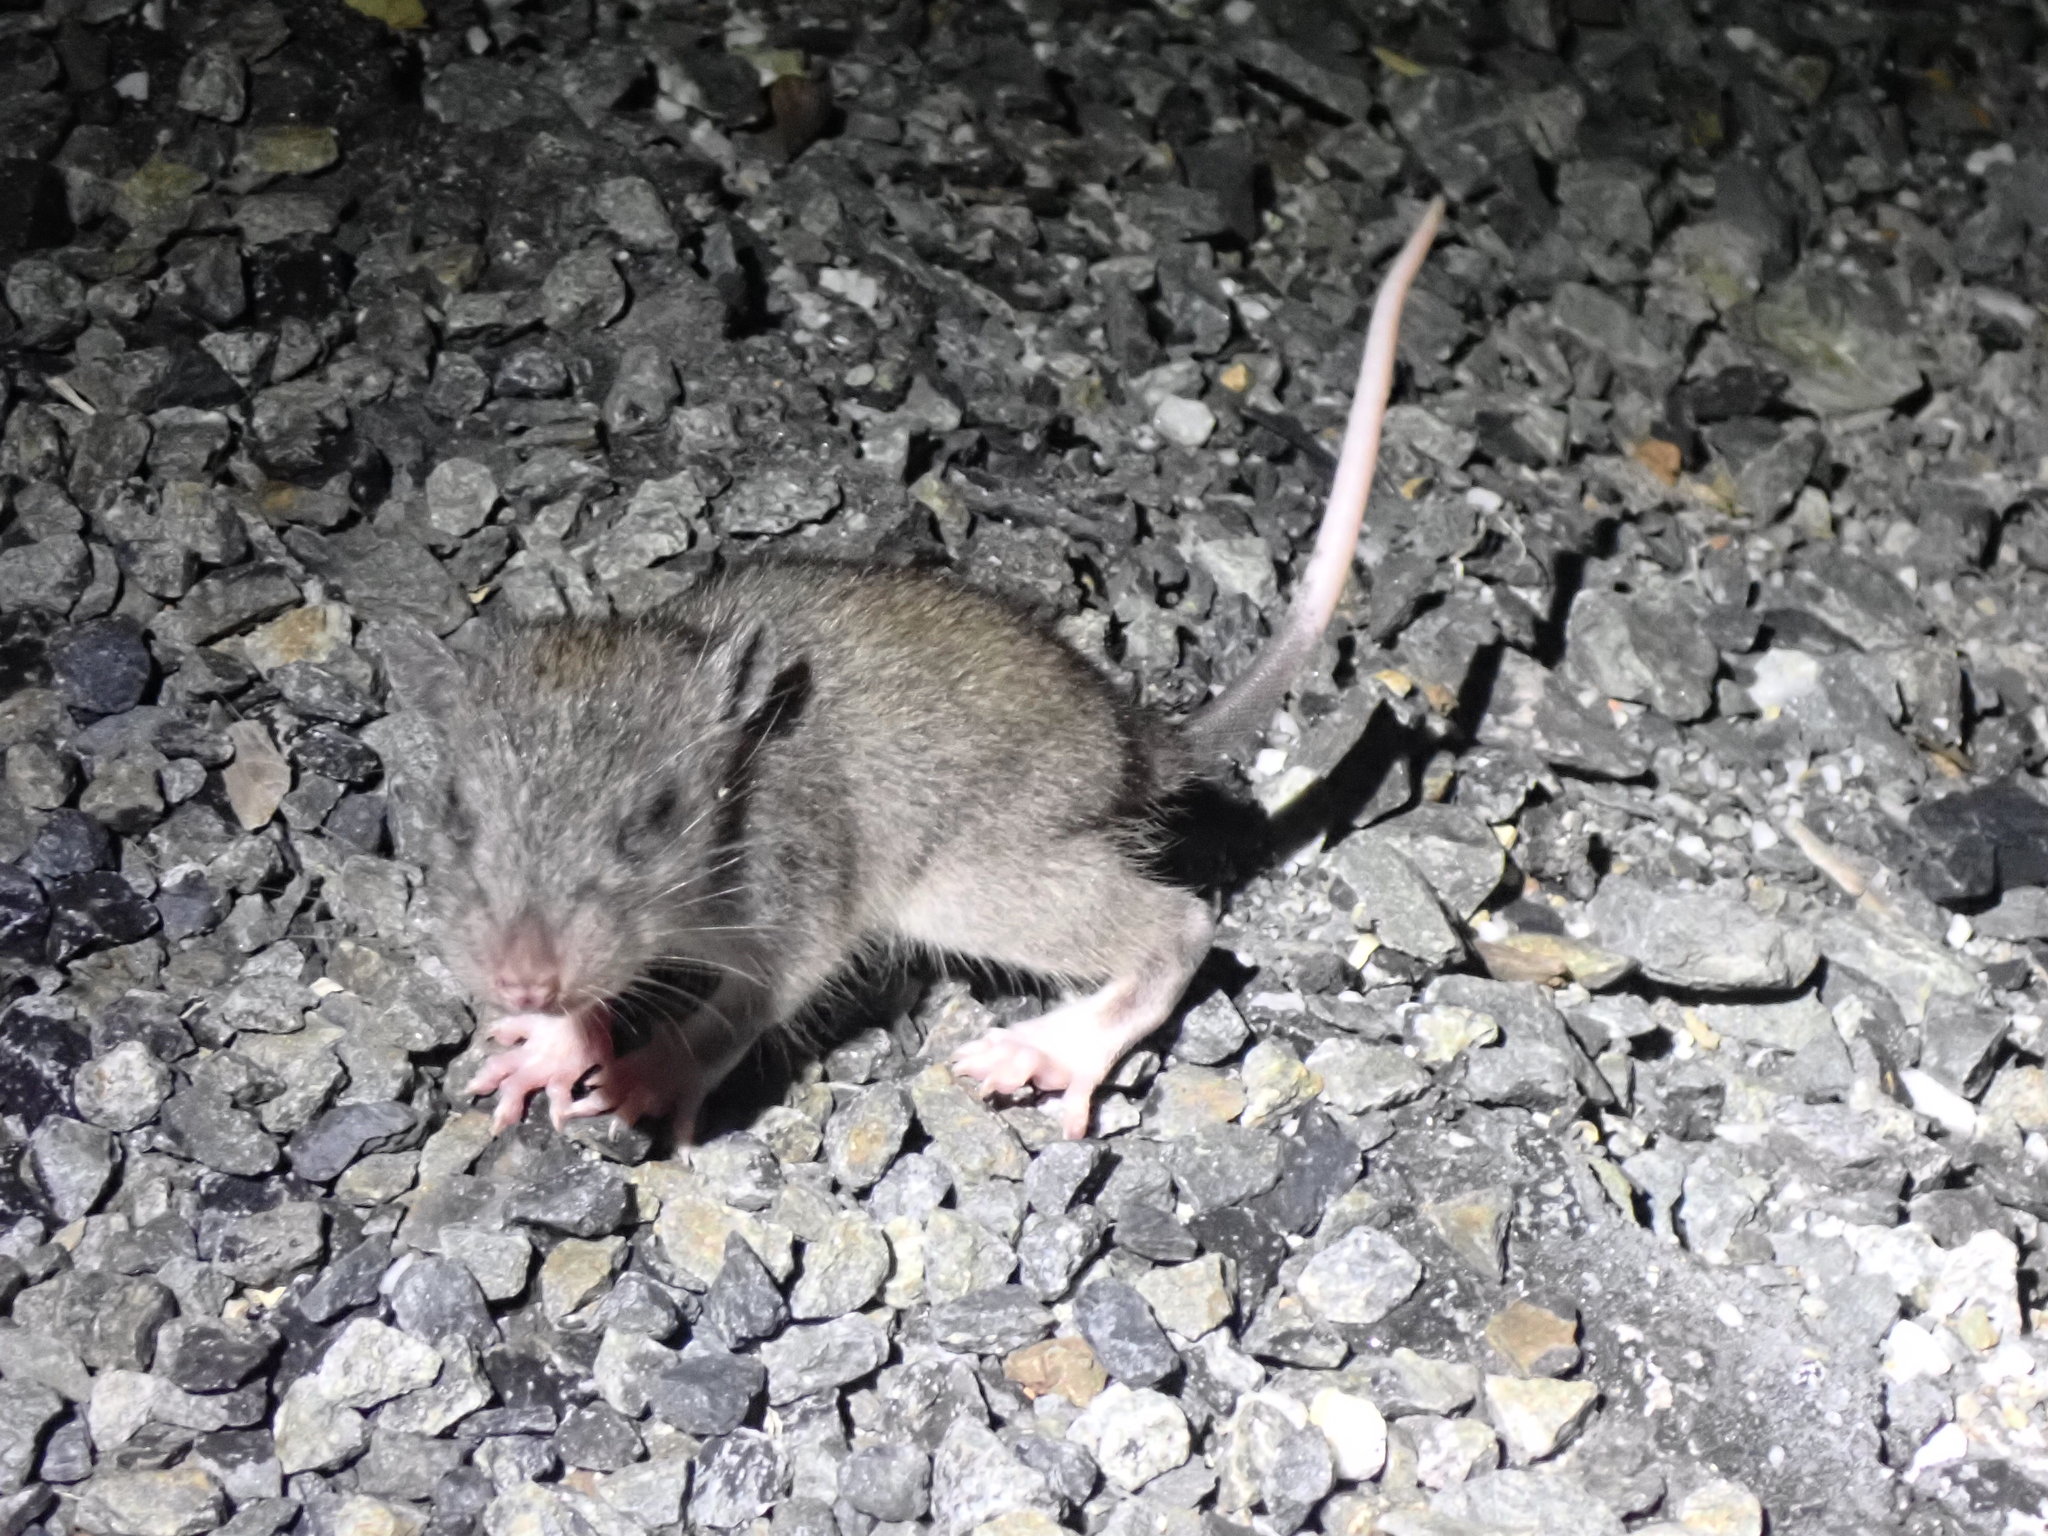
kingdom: Animalia
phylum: Chordata
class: Mammalia
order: Rodentia
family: Muridae
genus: Uromys
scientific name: Uromys caudimaculatus
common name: Giant white-tailed uromys
